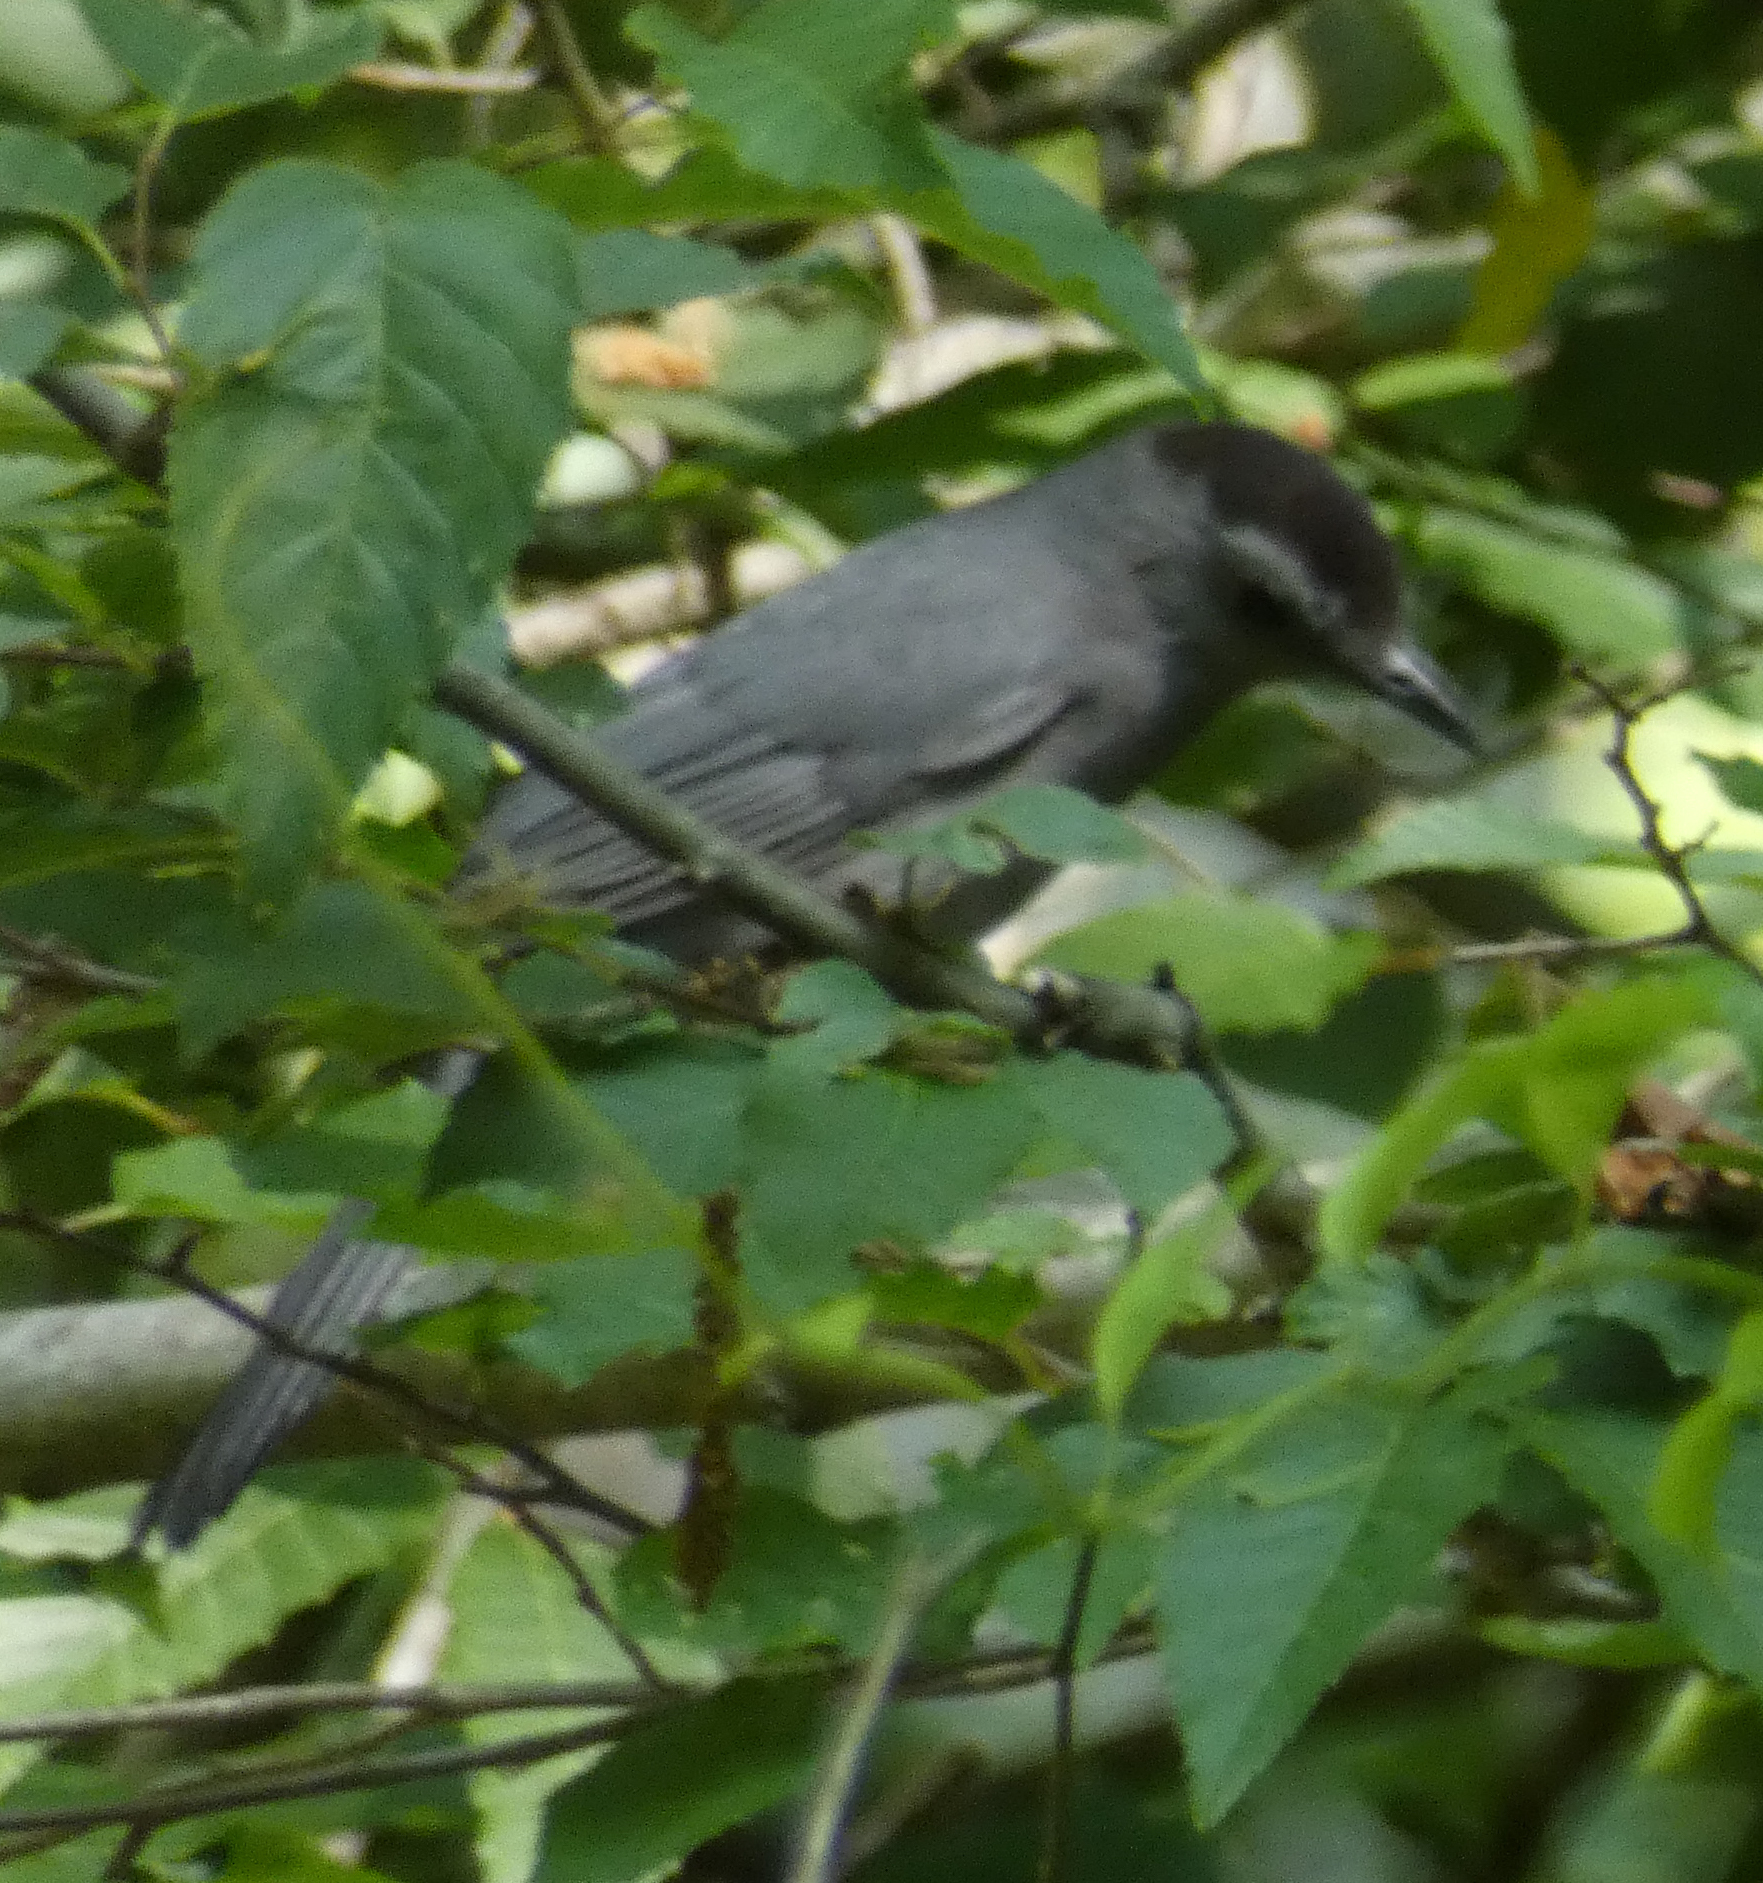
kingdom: Animalia
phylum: Chordata
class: Aves
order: Passeriformes
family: Mimidae
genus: Dumetella
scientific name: Dumetella carolinensis
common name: Gray catbird
